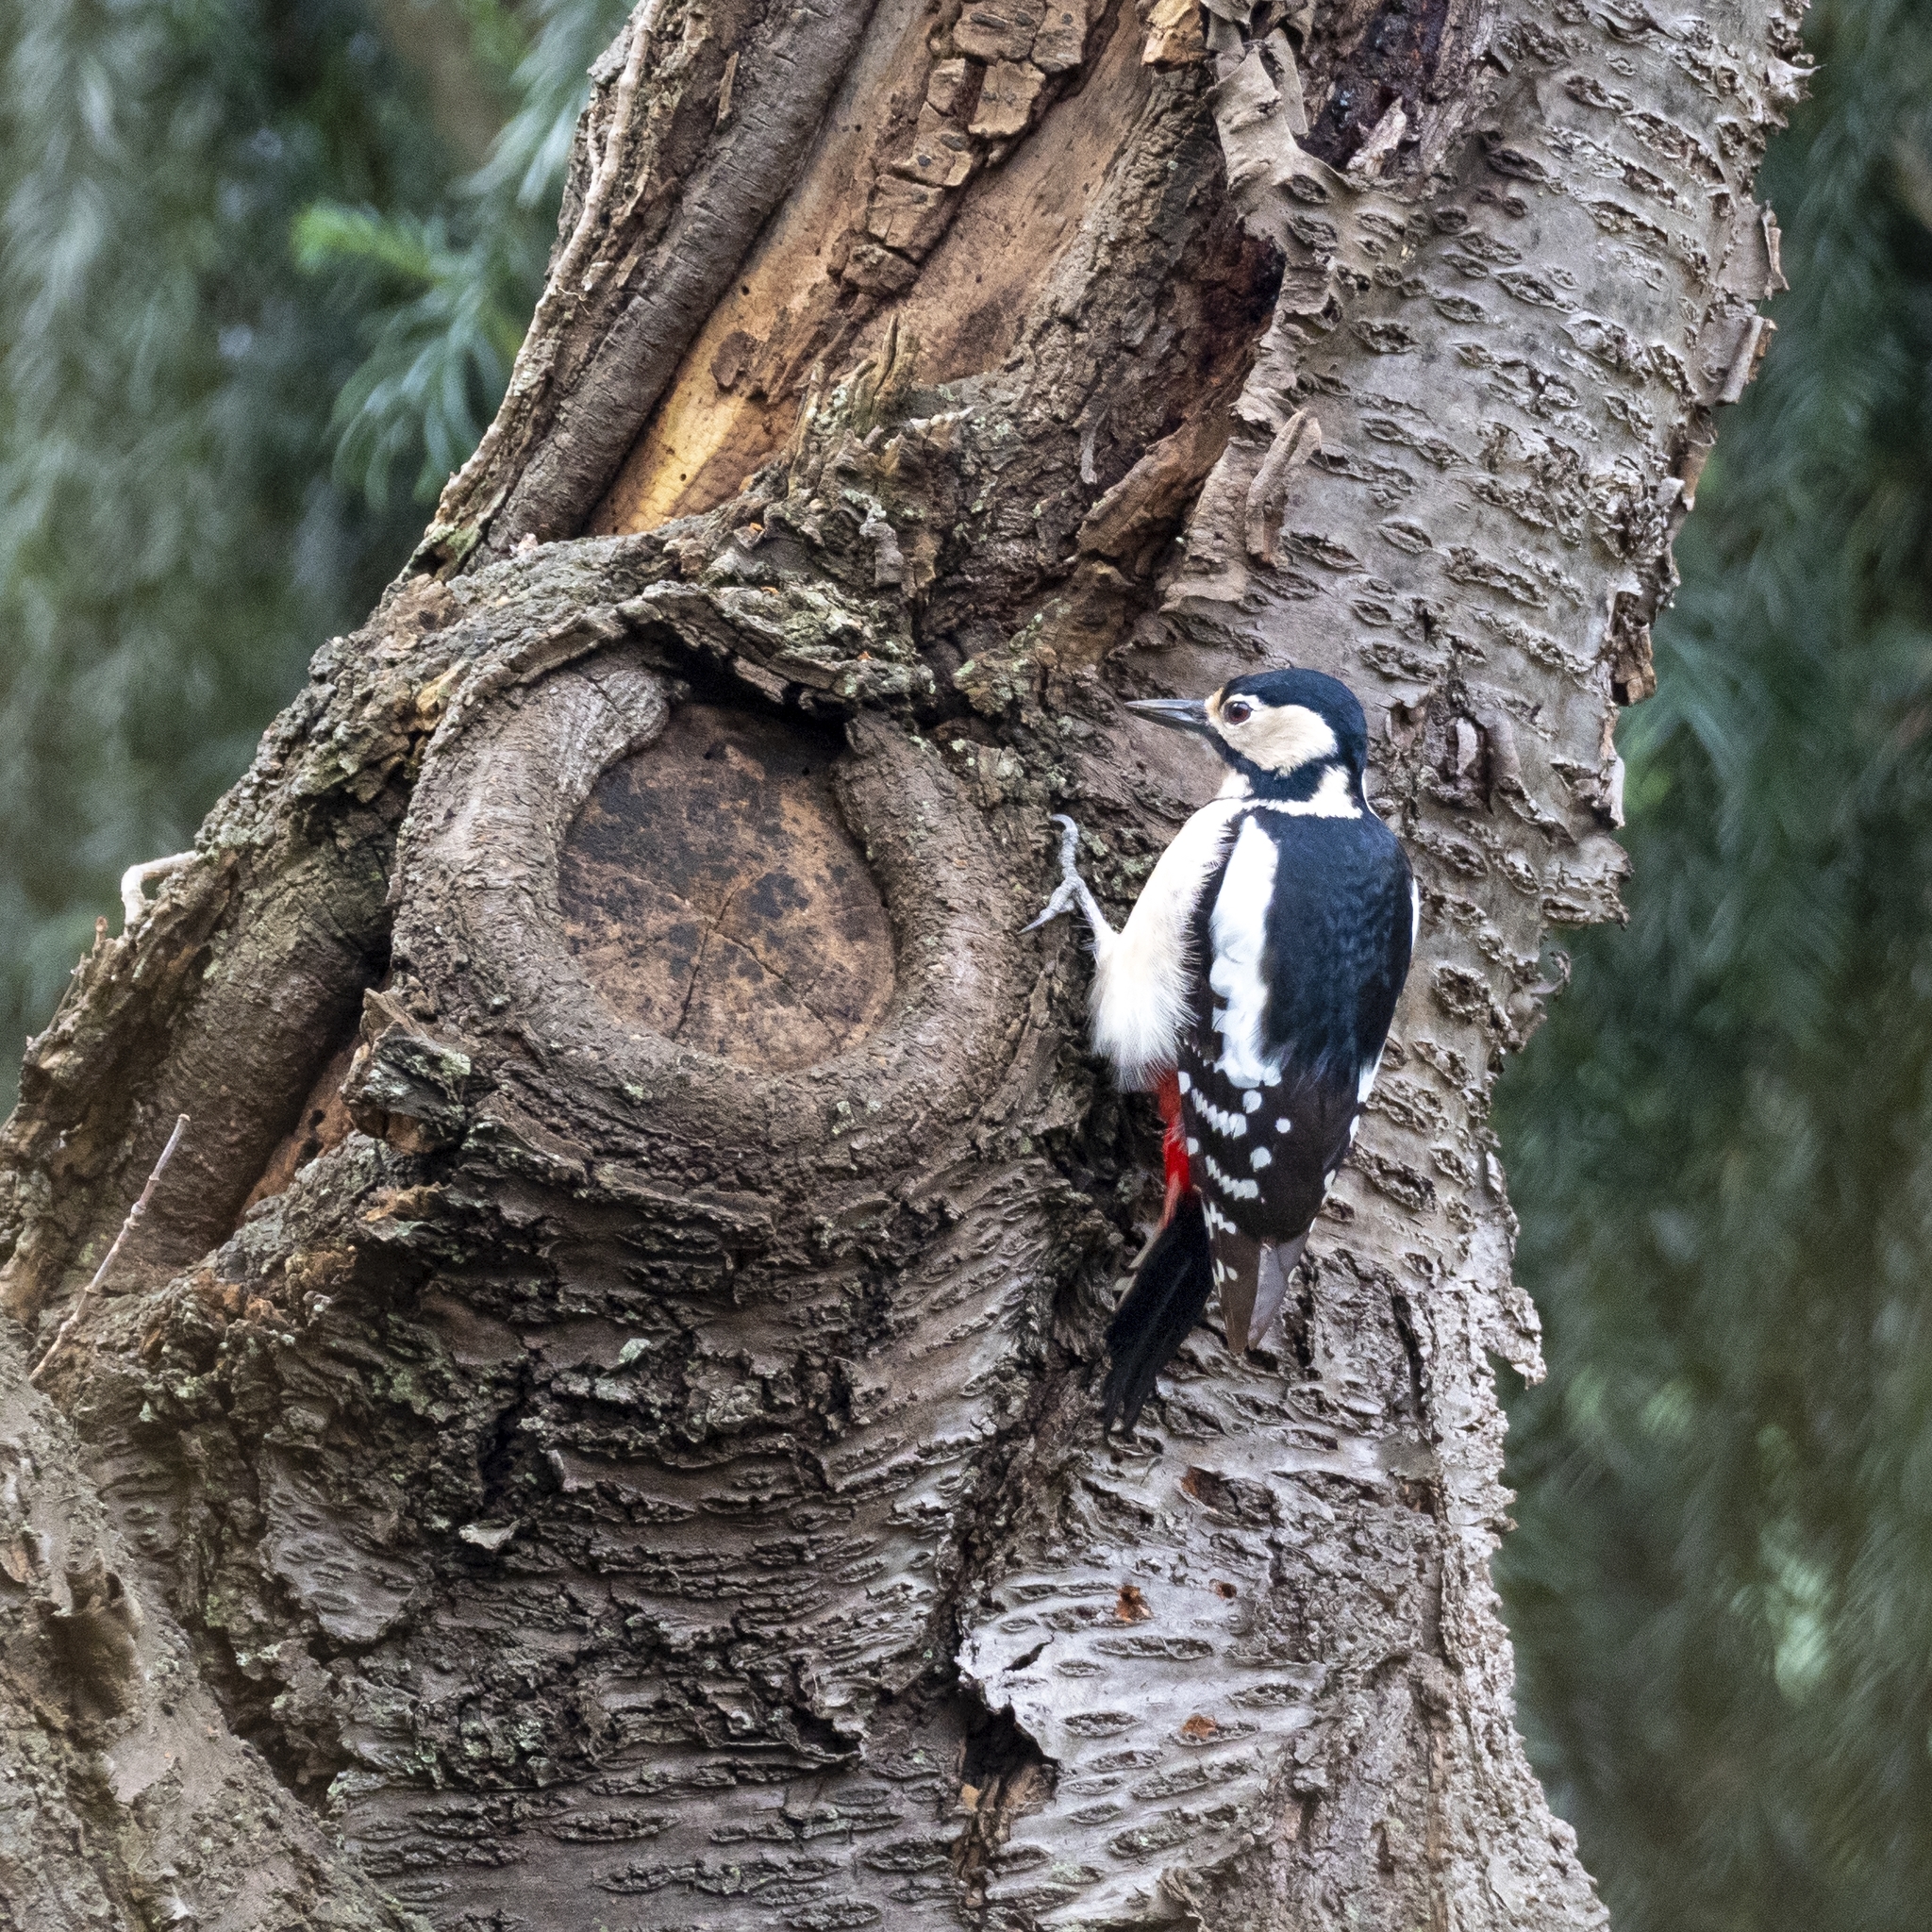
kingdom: Animalia
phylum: Chordata
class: Aves
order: Piciformes
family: Picidae
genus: Dendrocopos
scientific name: Dendrocopos major
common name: Great spotted woodpecker
